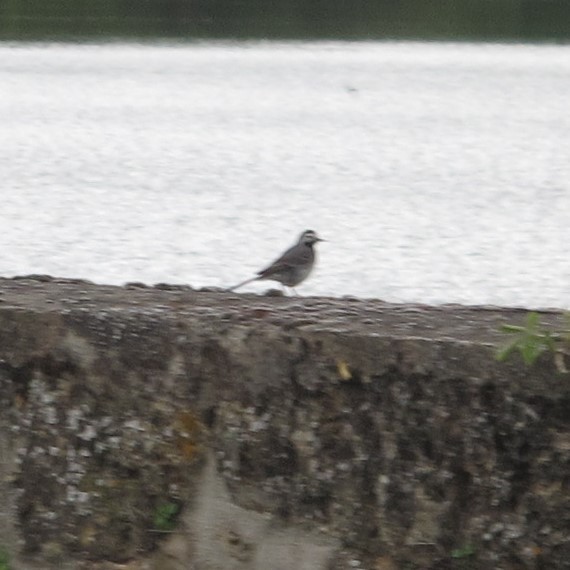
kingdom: Animalia
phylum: Chordata
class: Aves
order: Passeriformes
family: Motacillidae
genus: Motacilla
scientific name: Motacilla alba
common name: White wagtail
